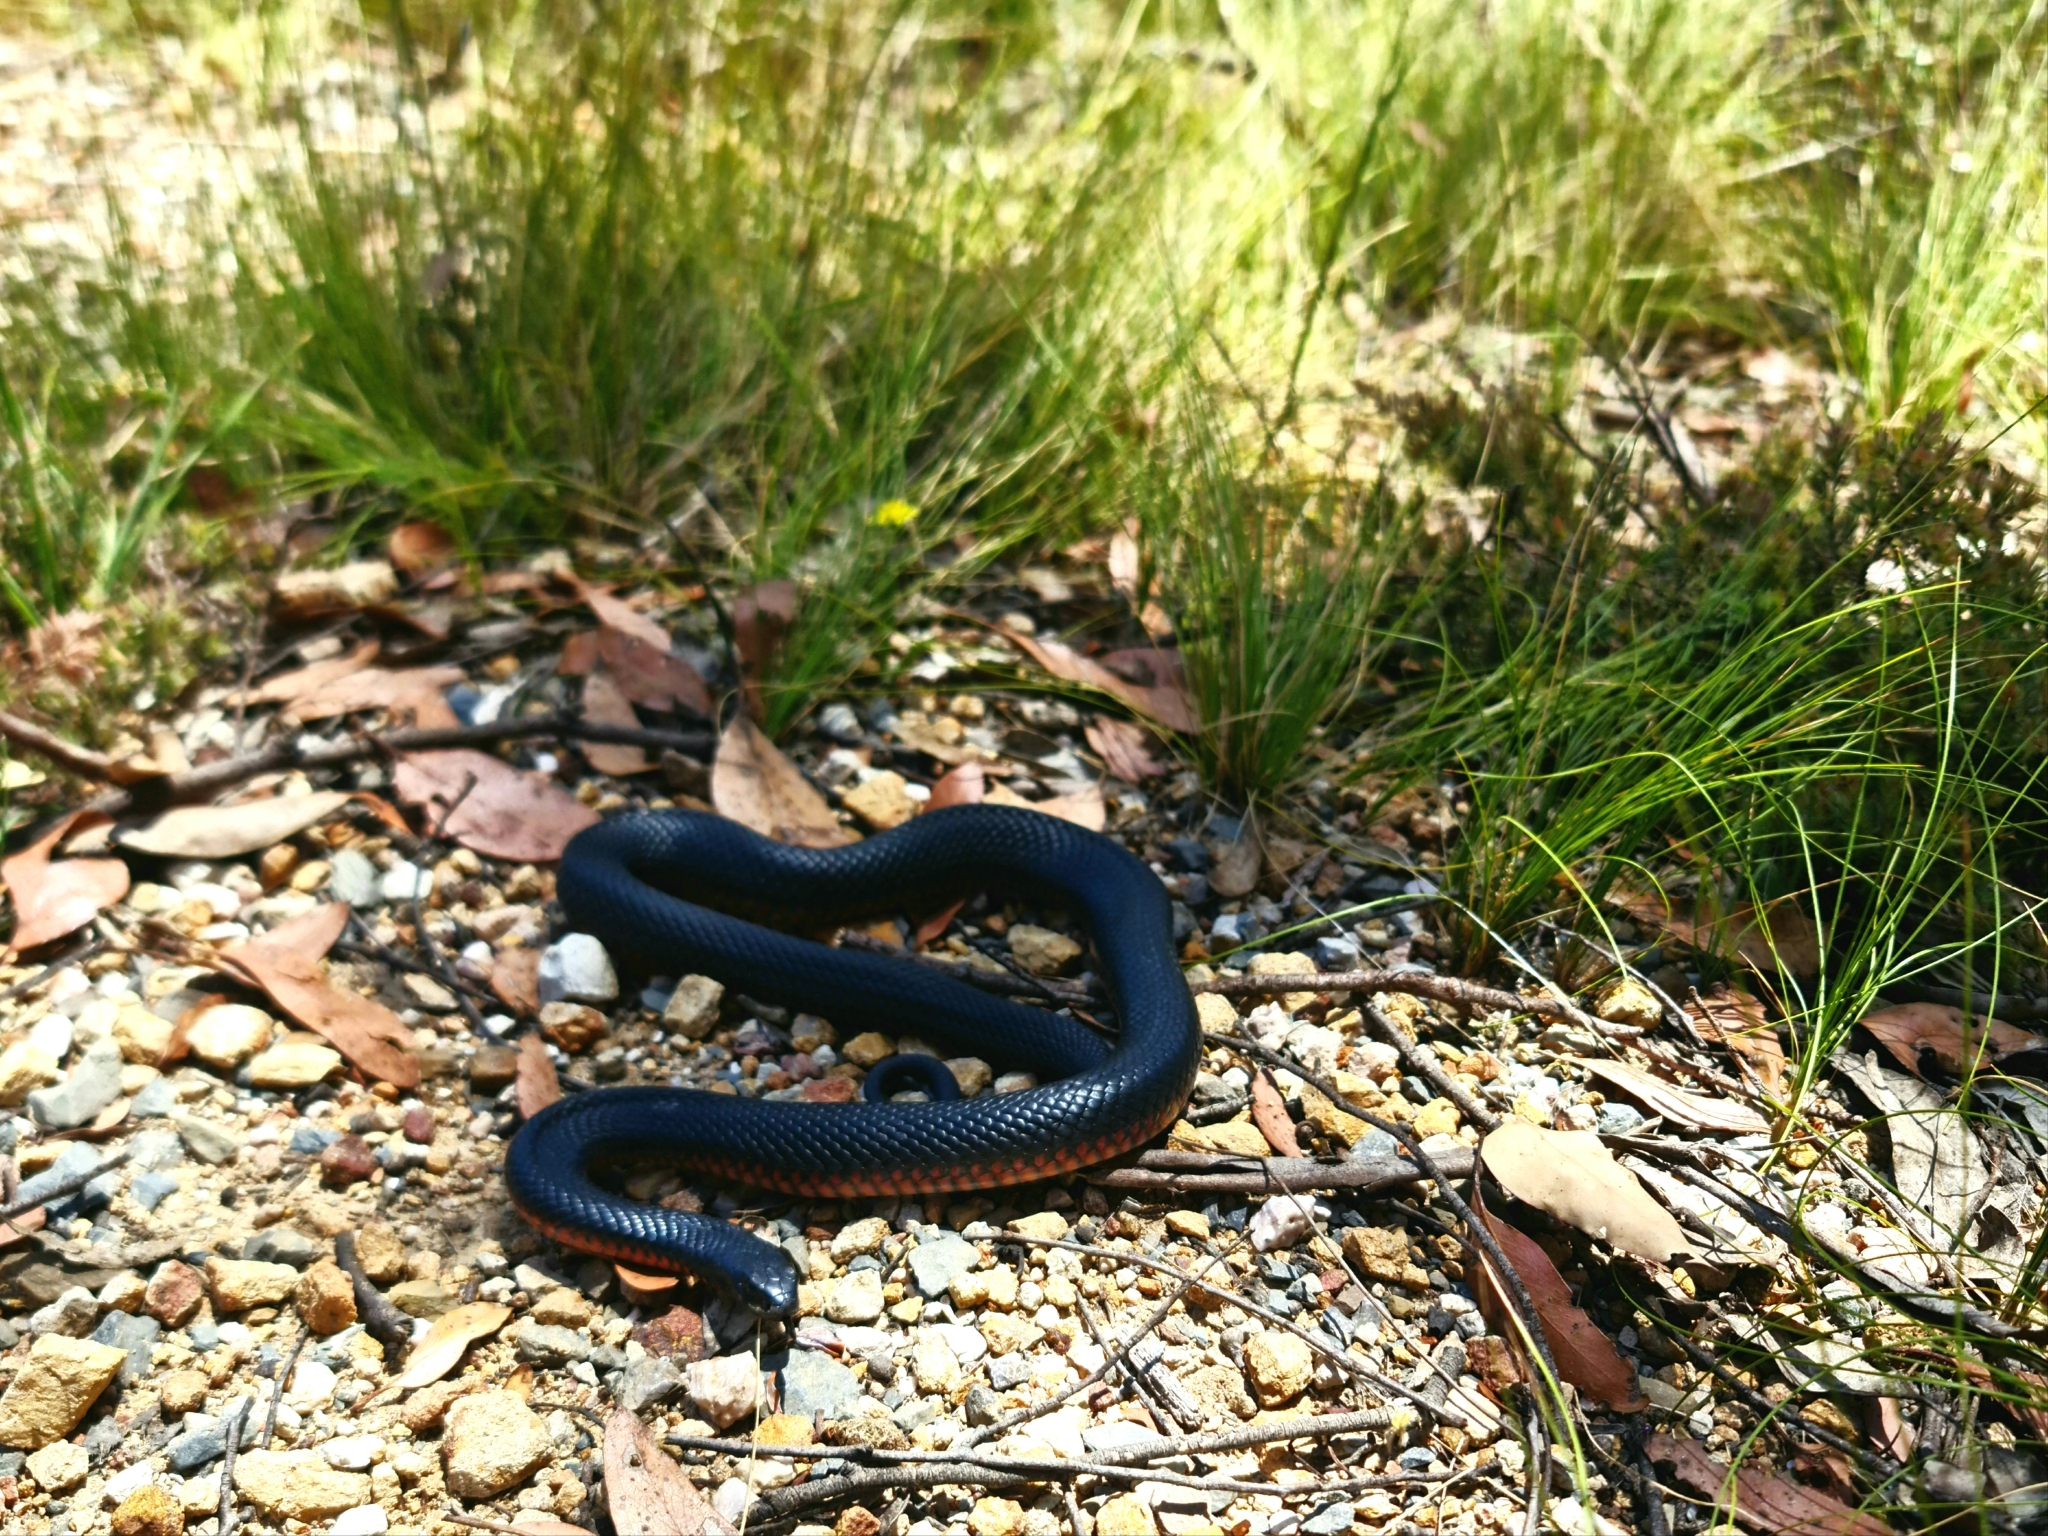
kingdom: Animalia
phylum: Chordata
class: Squamata
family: Elapidae
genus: Pseudechis
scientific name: Pseudechis porphyriacus
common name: Australian black snake
